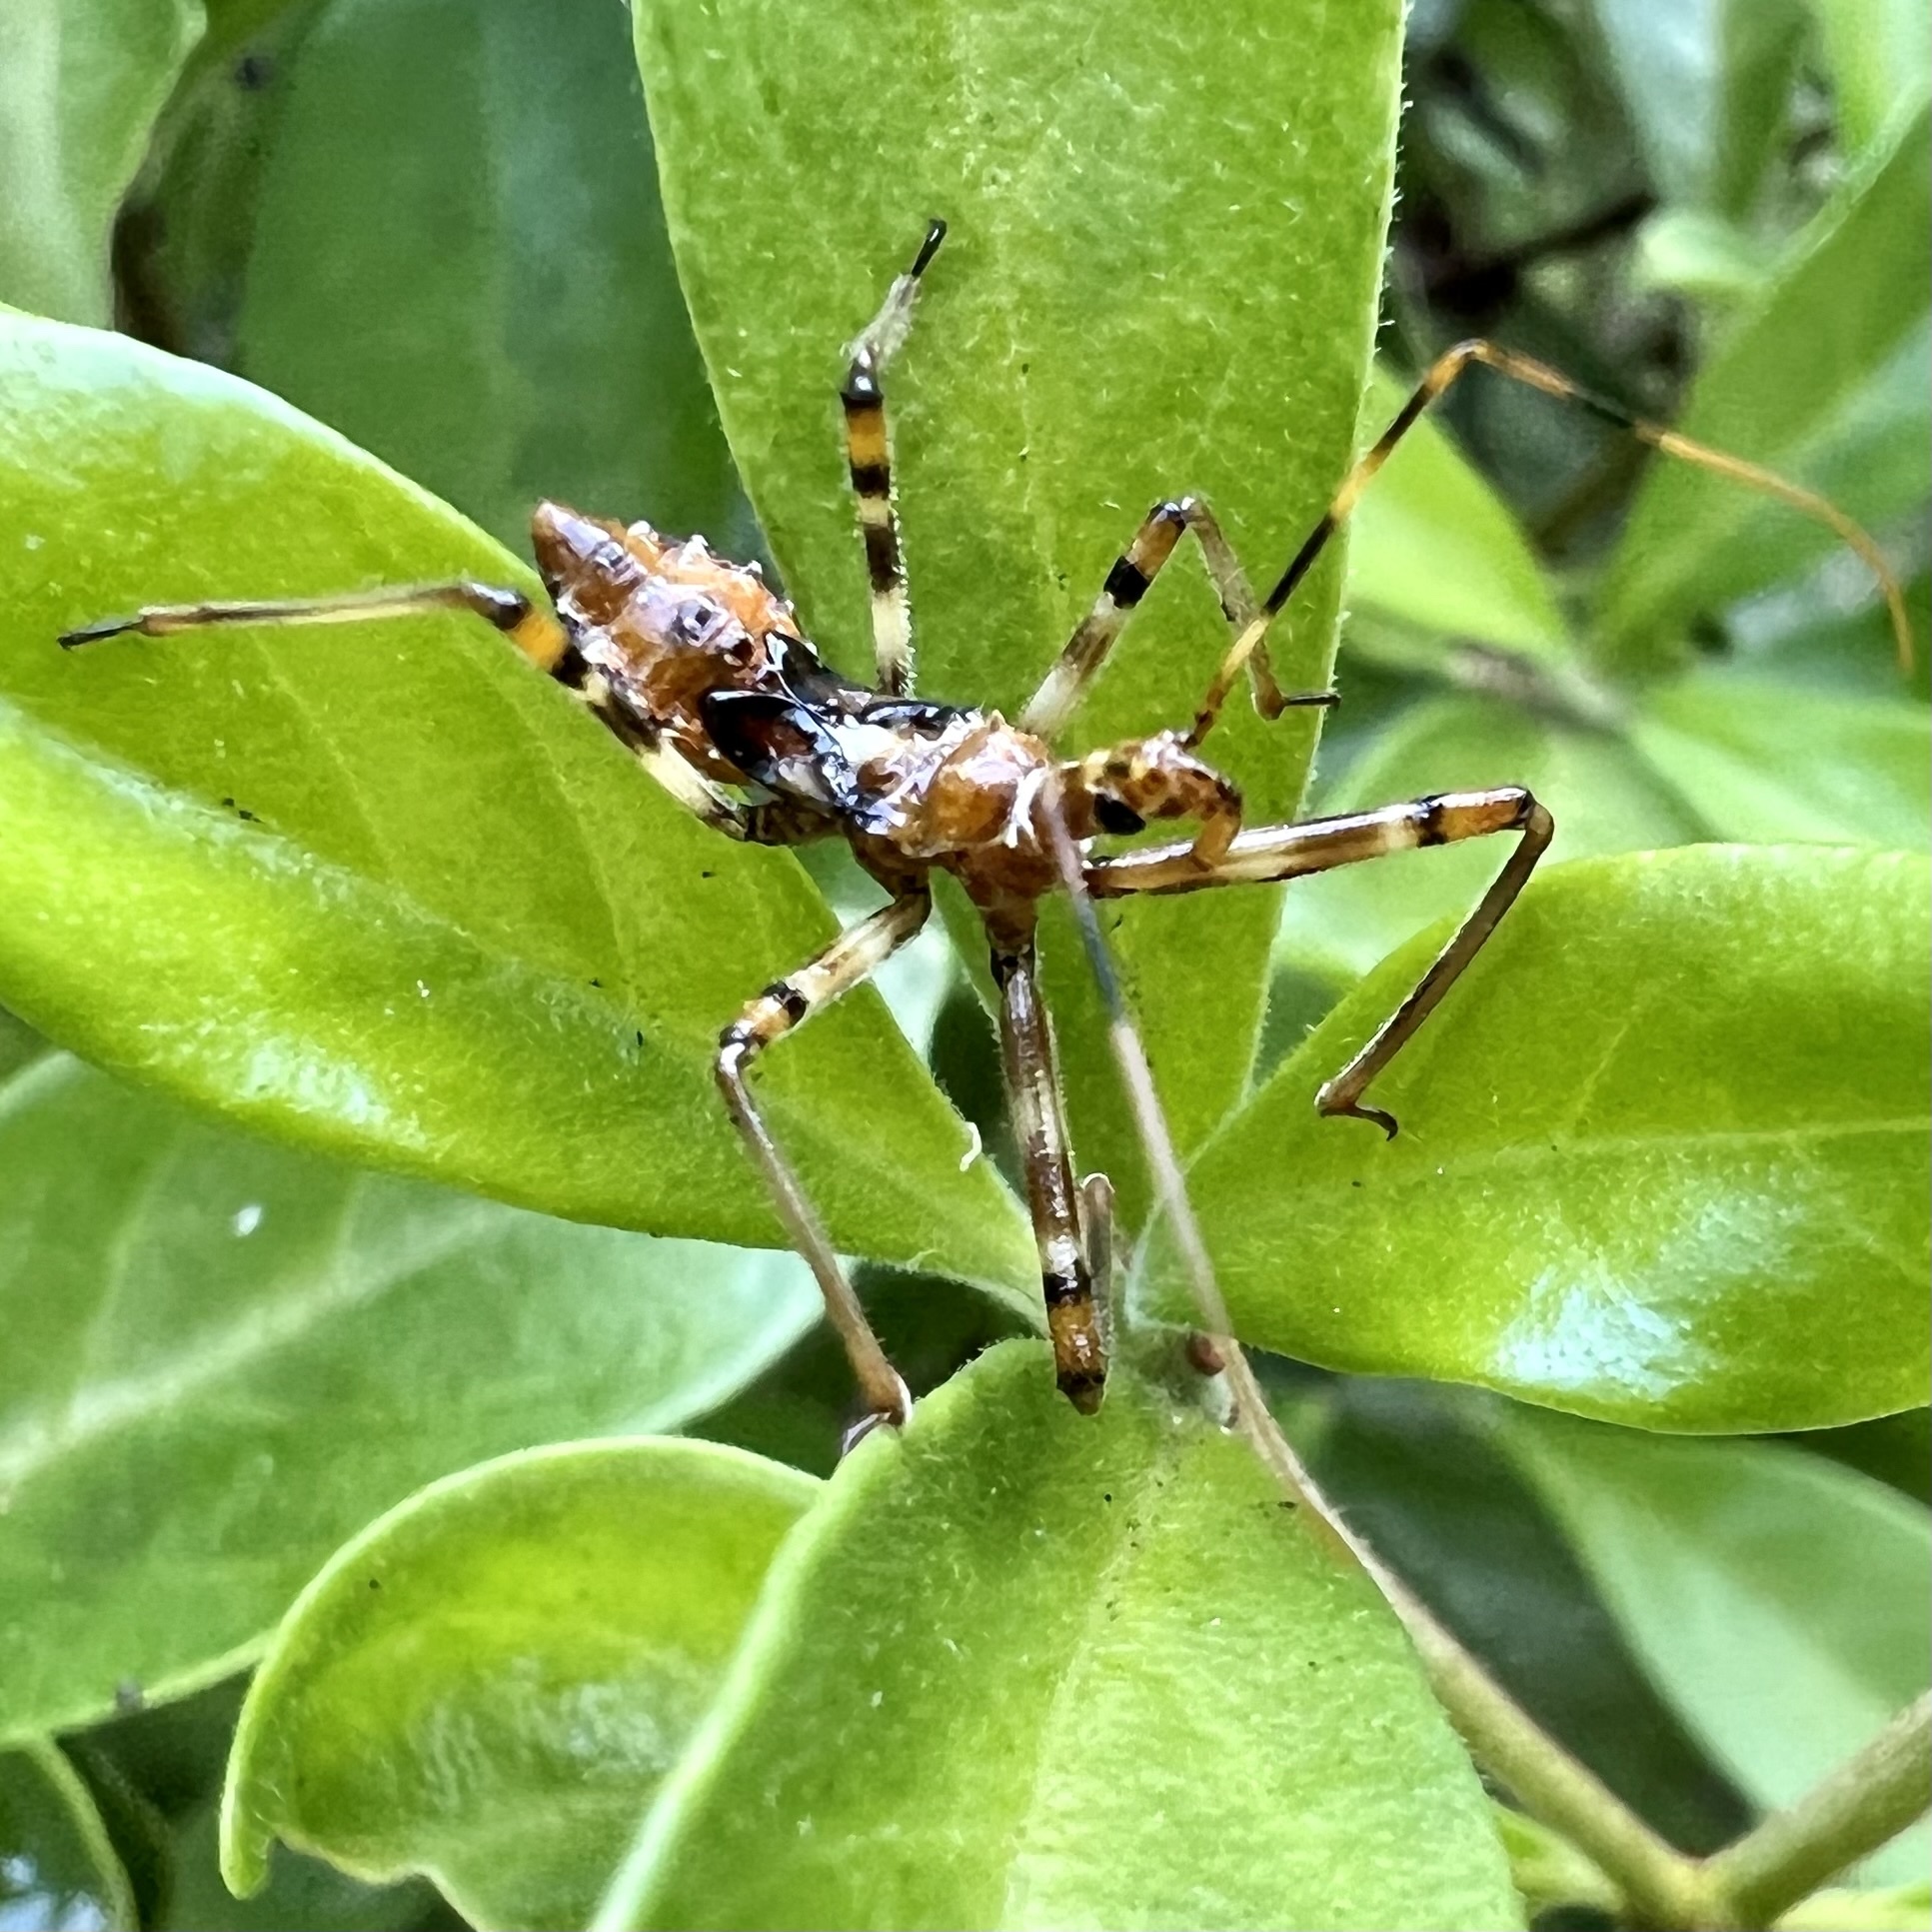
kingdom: Animalia
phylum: Arthropoda
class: Insecta
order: Hemiptera
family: Reduviidae
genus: Pristhesancus
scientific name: Pristhesancus plagipennis
